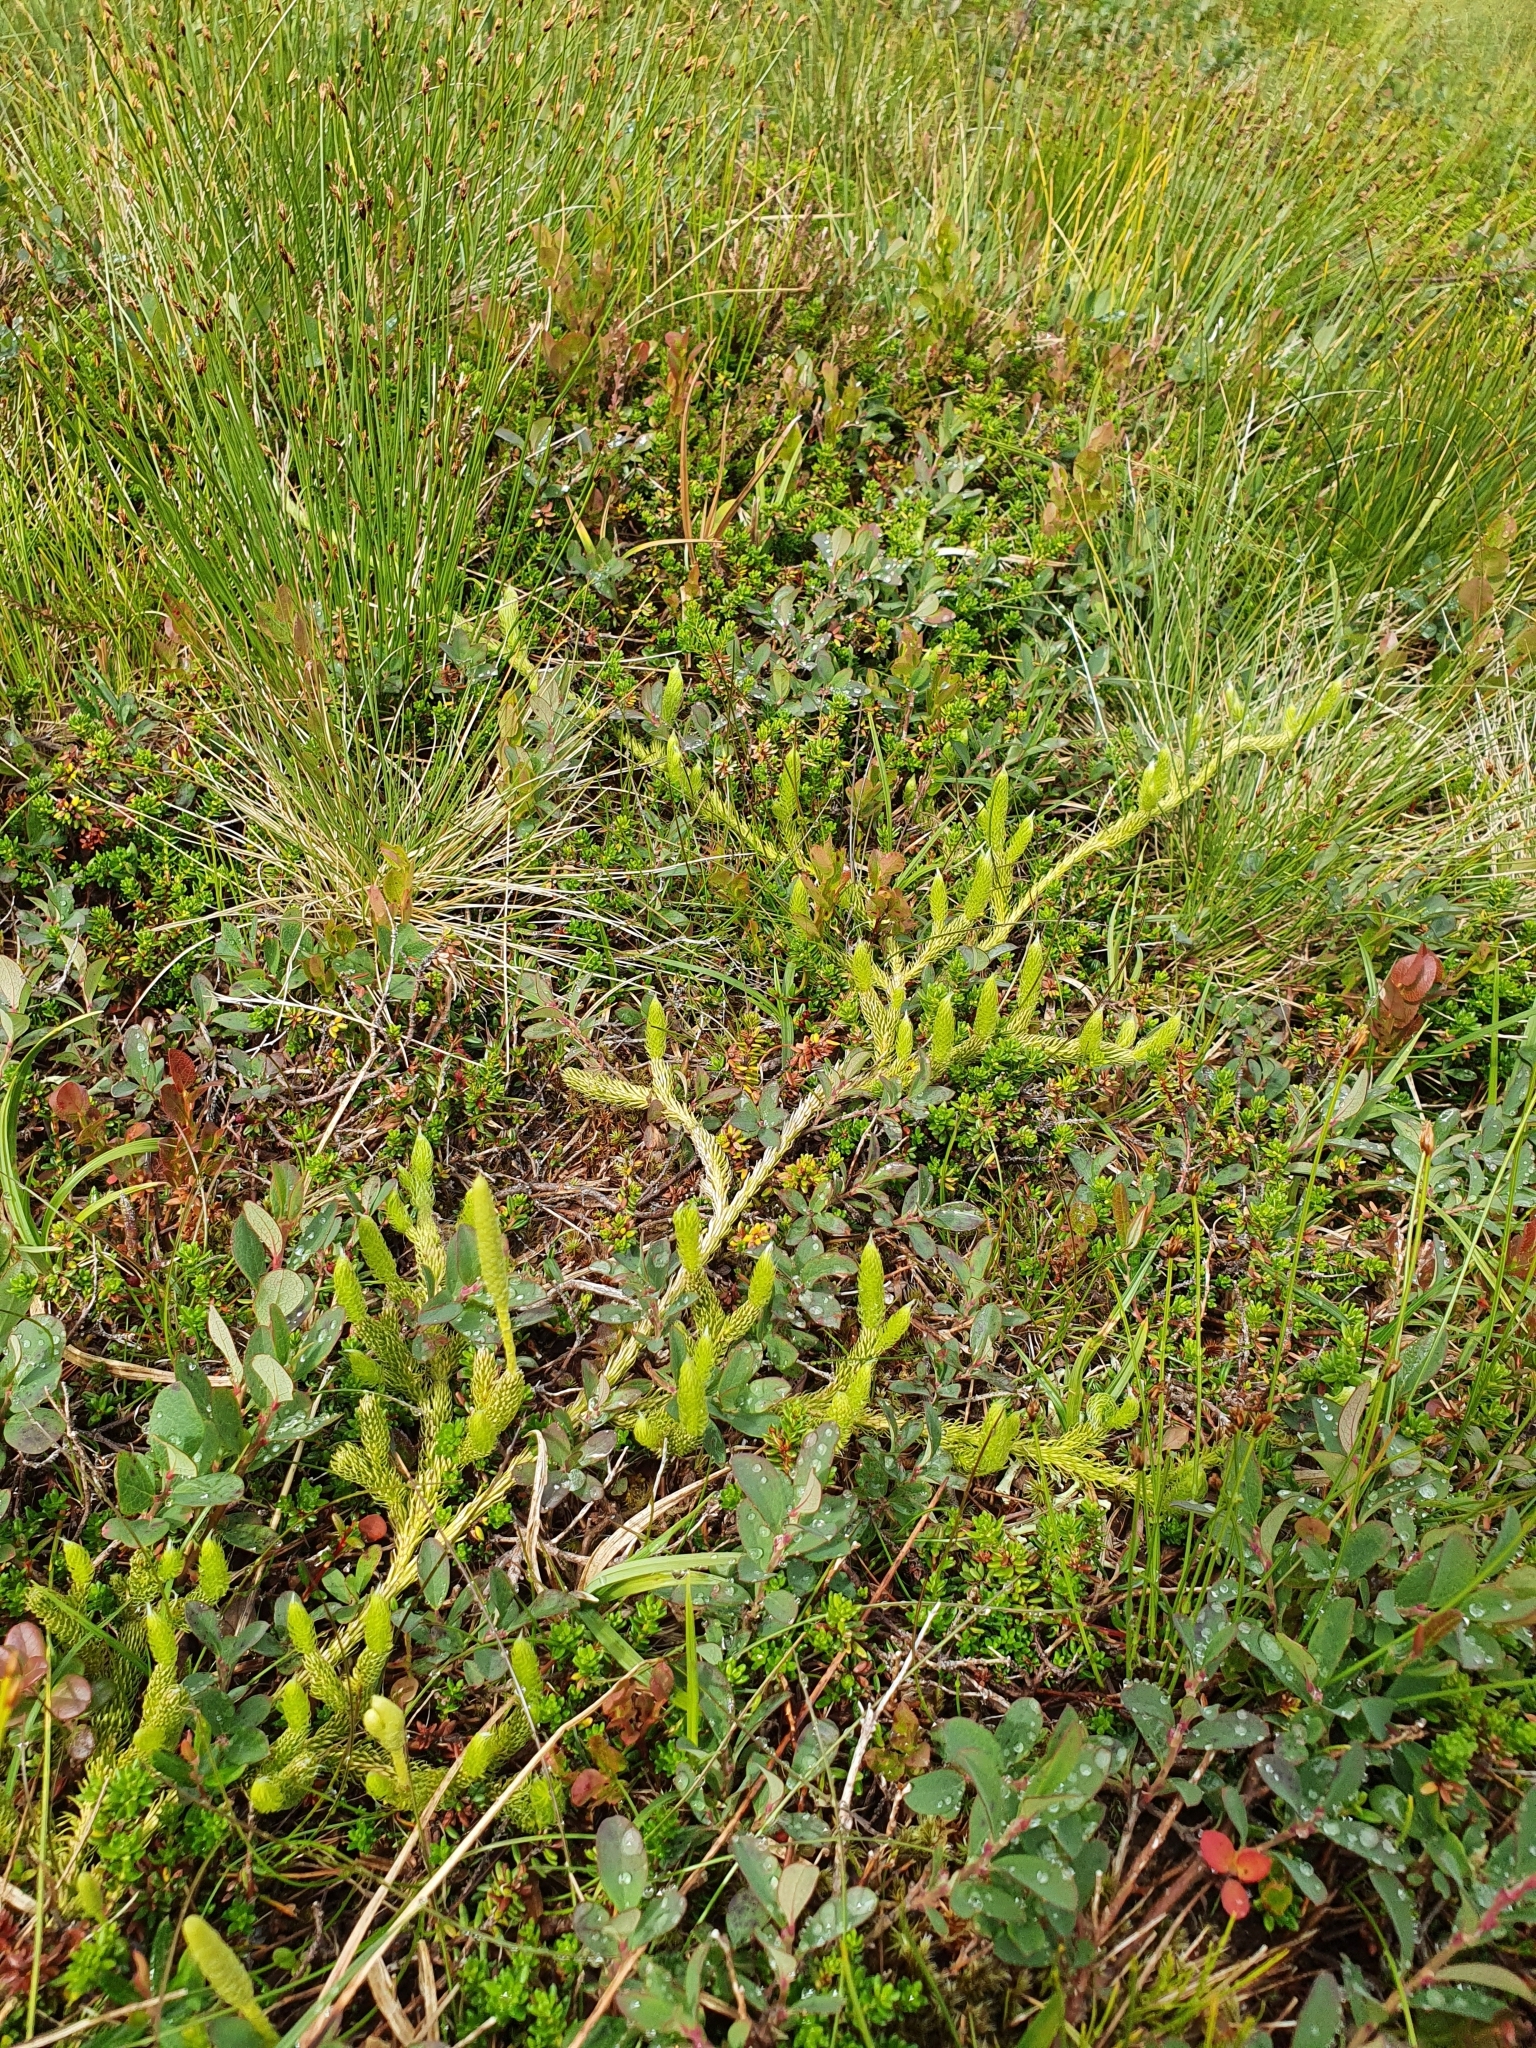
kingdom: Plantae
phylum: Tracheophyta
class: Lycopodiopsida
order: Lycopodiales
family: Lycopodiaceae
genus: Lycopodium
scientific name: Lycopodium clavatum
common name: Stag's-horn clubmoss
